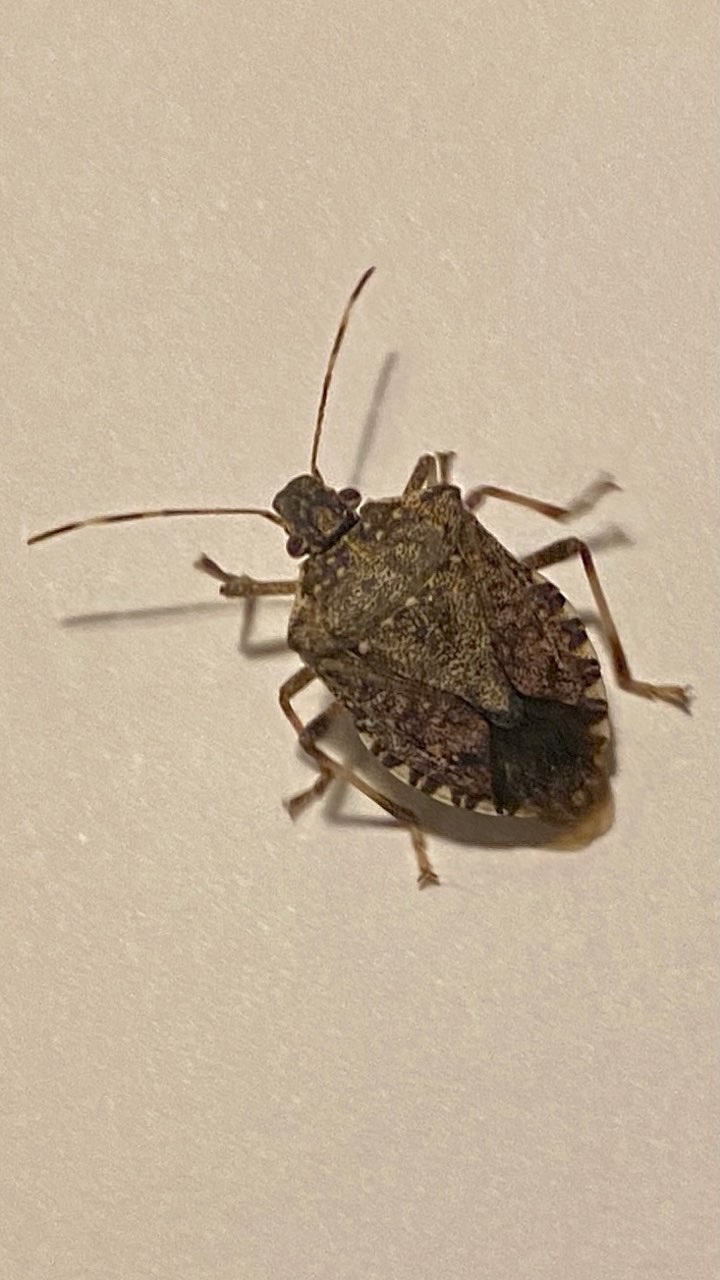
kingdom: Animalia
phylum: Arthropoda
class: Insecta
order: Hemiptera
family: Pentatomidae
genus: Halyomorpha
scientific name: Halyomorpha halys
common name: Brown marmorated stink bug
